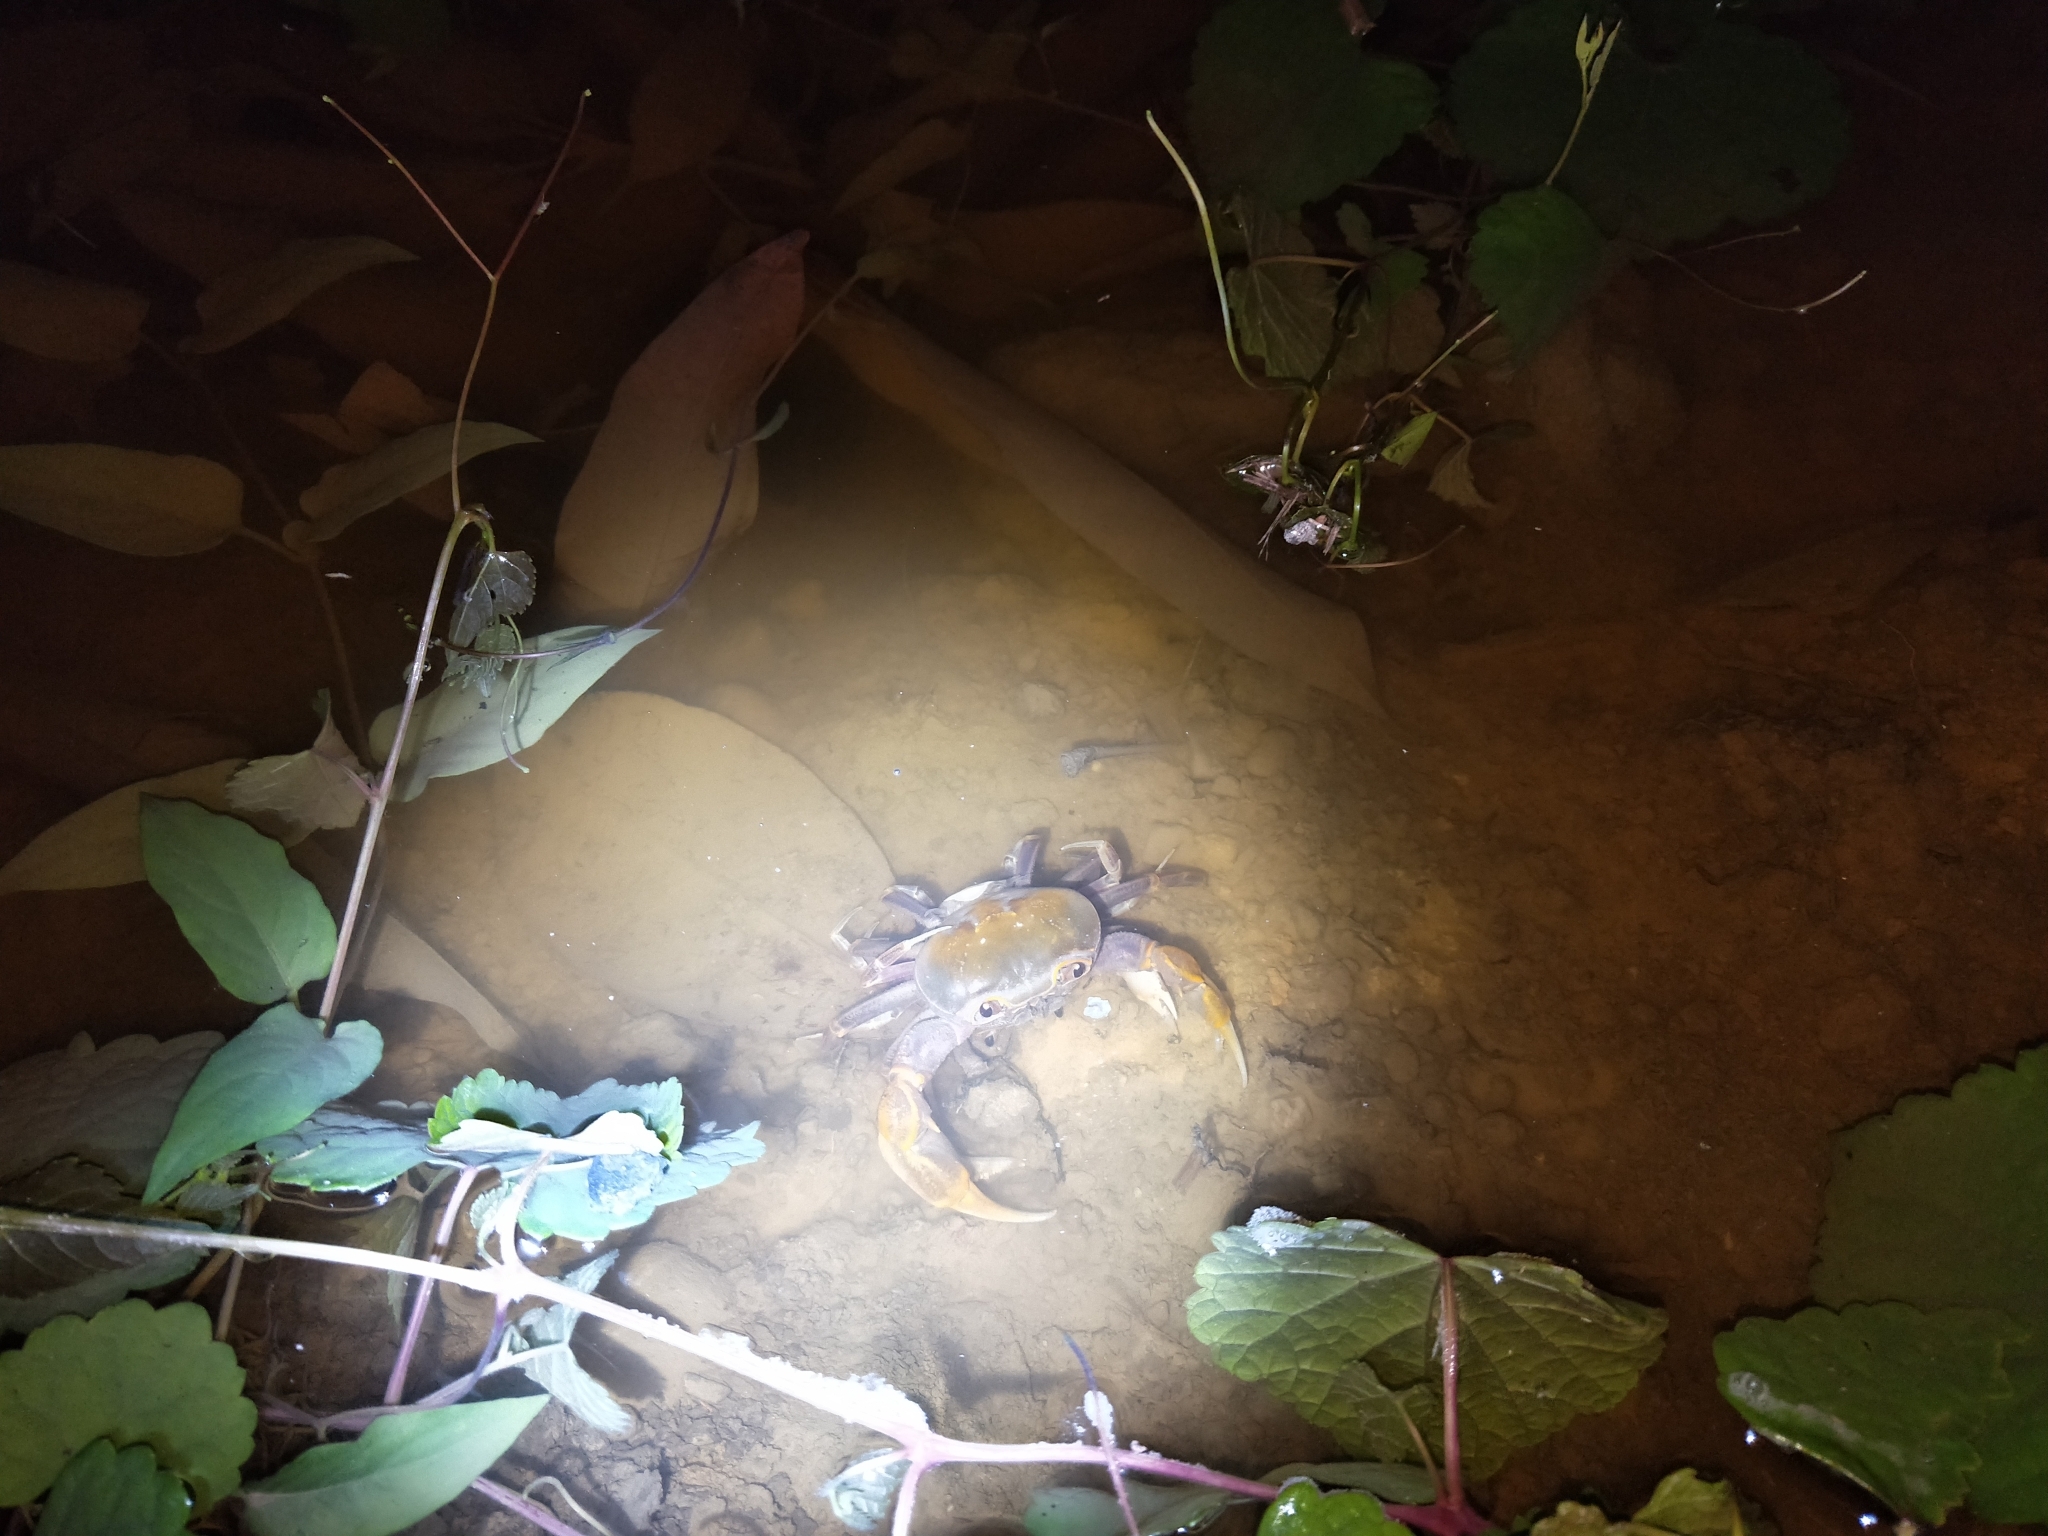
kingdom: Animalia
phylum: Arthropoda
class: Malacostraca
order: Decapoda
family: Potamidae
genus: Nanhaipotamon
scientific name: Nanhaipotamon formosanum
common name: Taiwan's south china sea river crab
